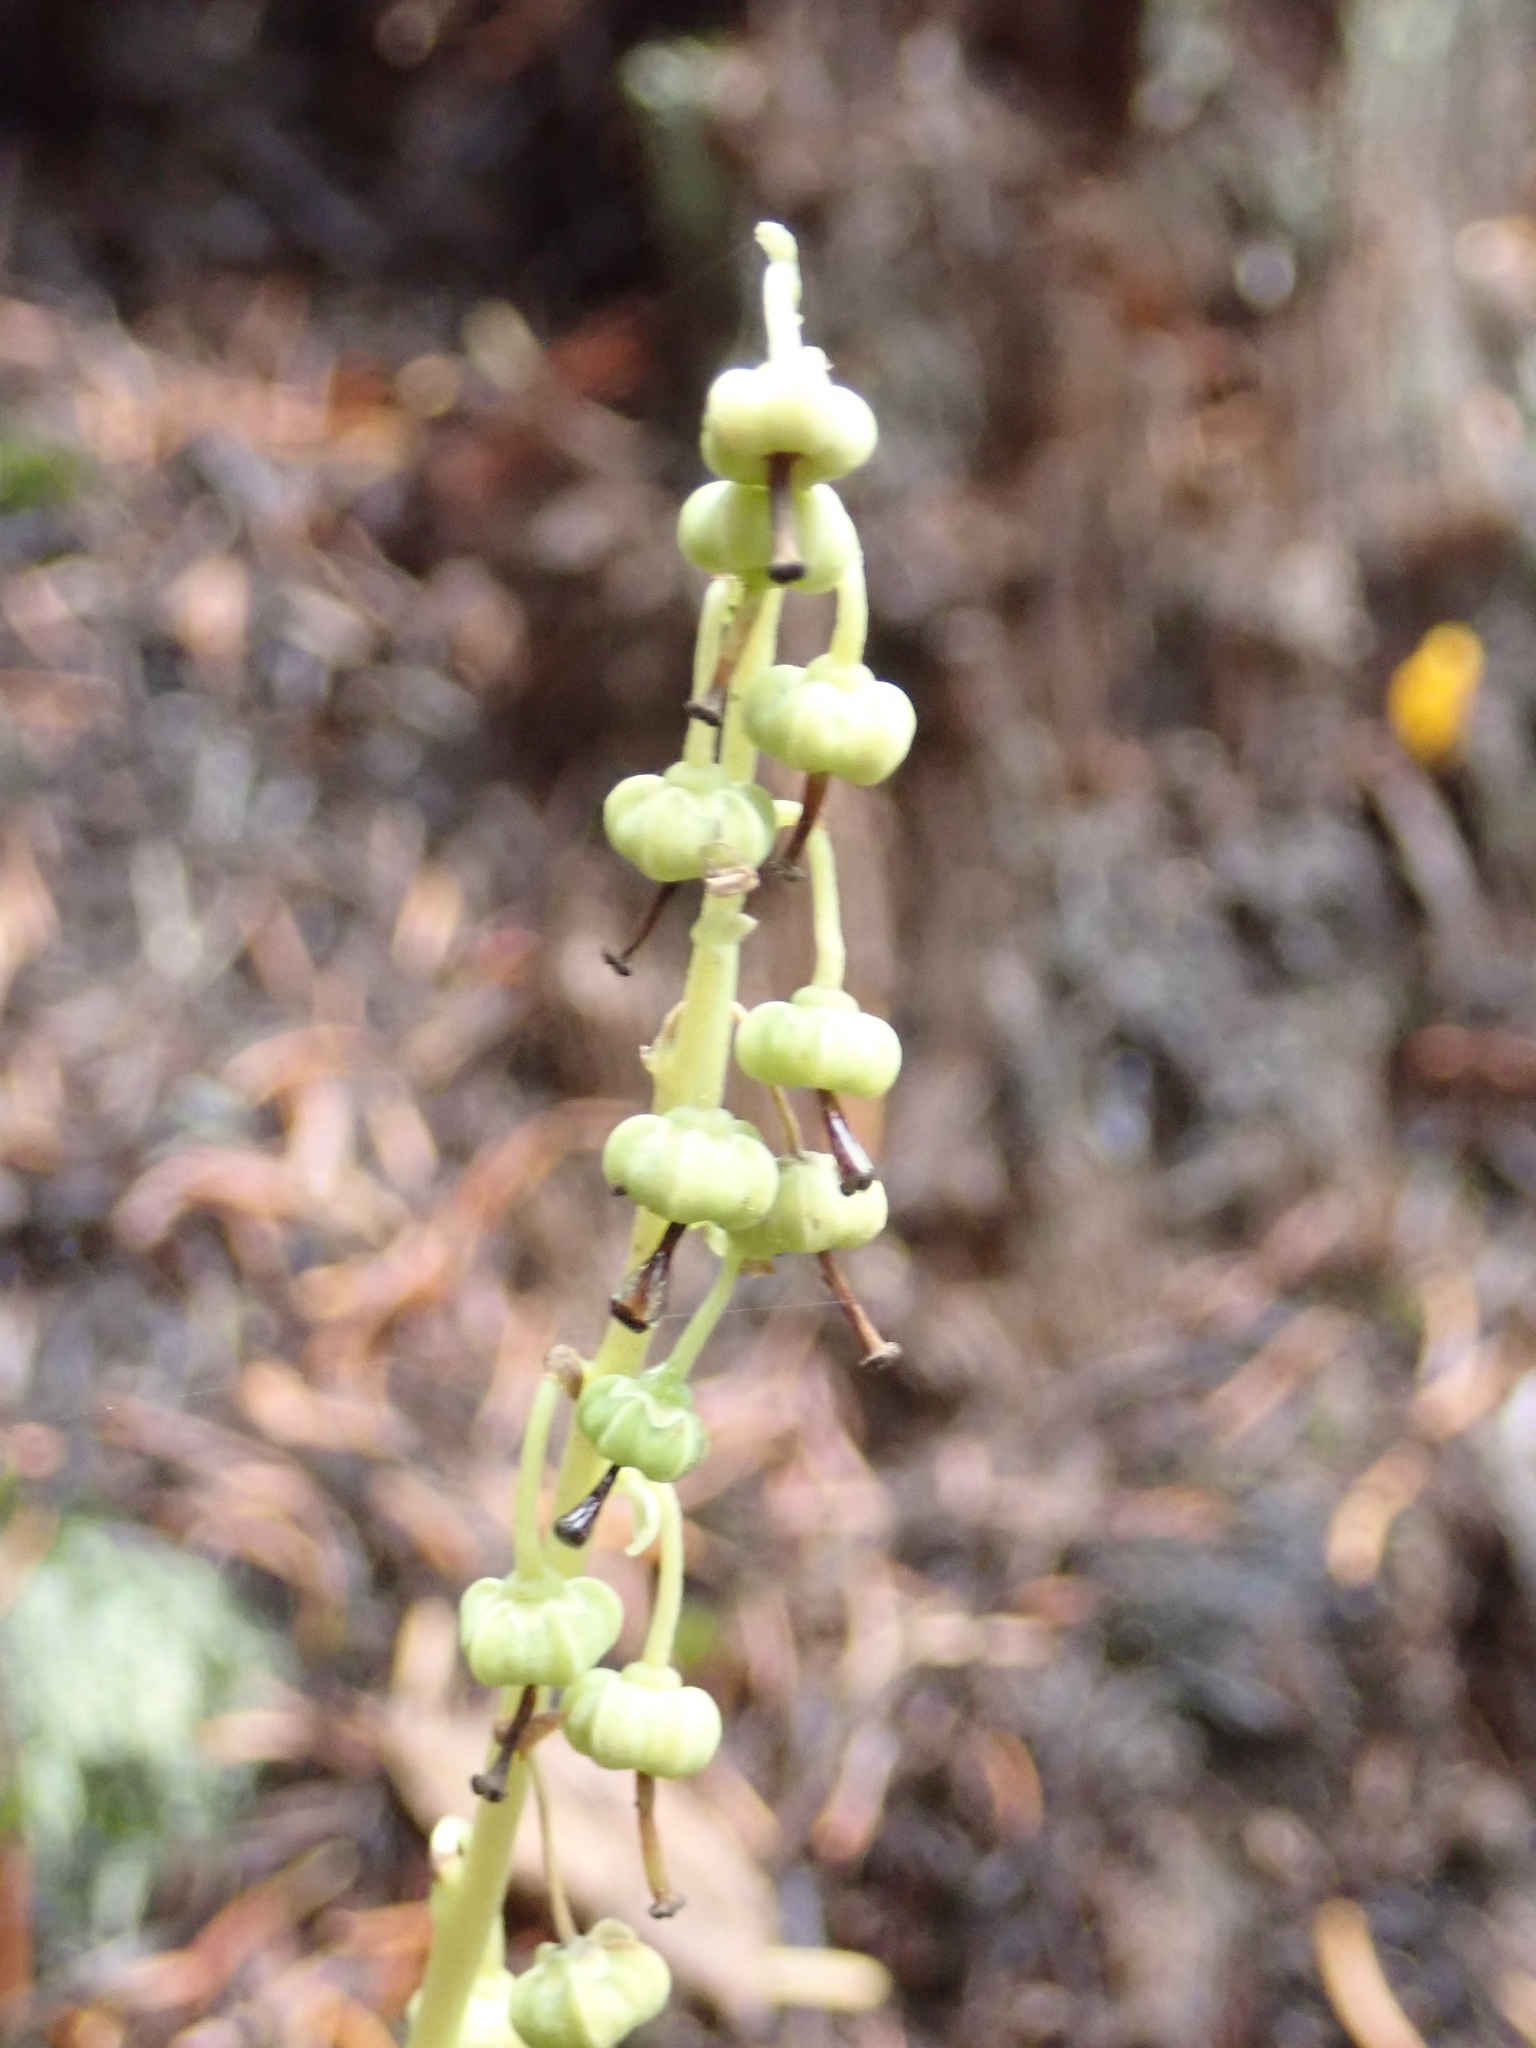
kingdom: Plantae
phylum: Tracheophyta
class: Magnoliopsida
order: Ericales
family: Ericaceae
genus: Orthilia
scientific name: Orthilia secunda
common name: One-sided orthilia
